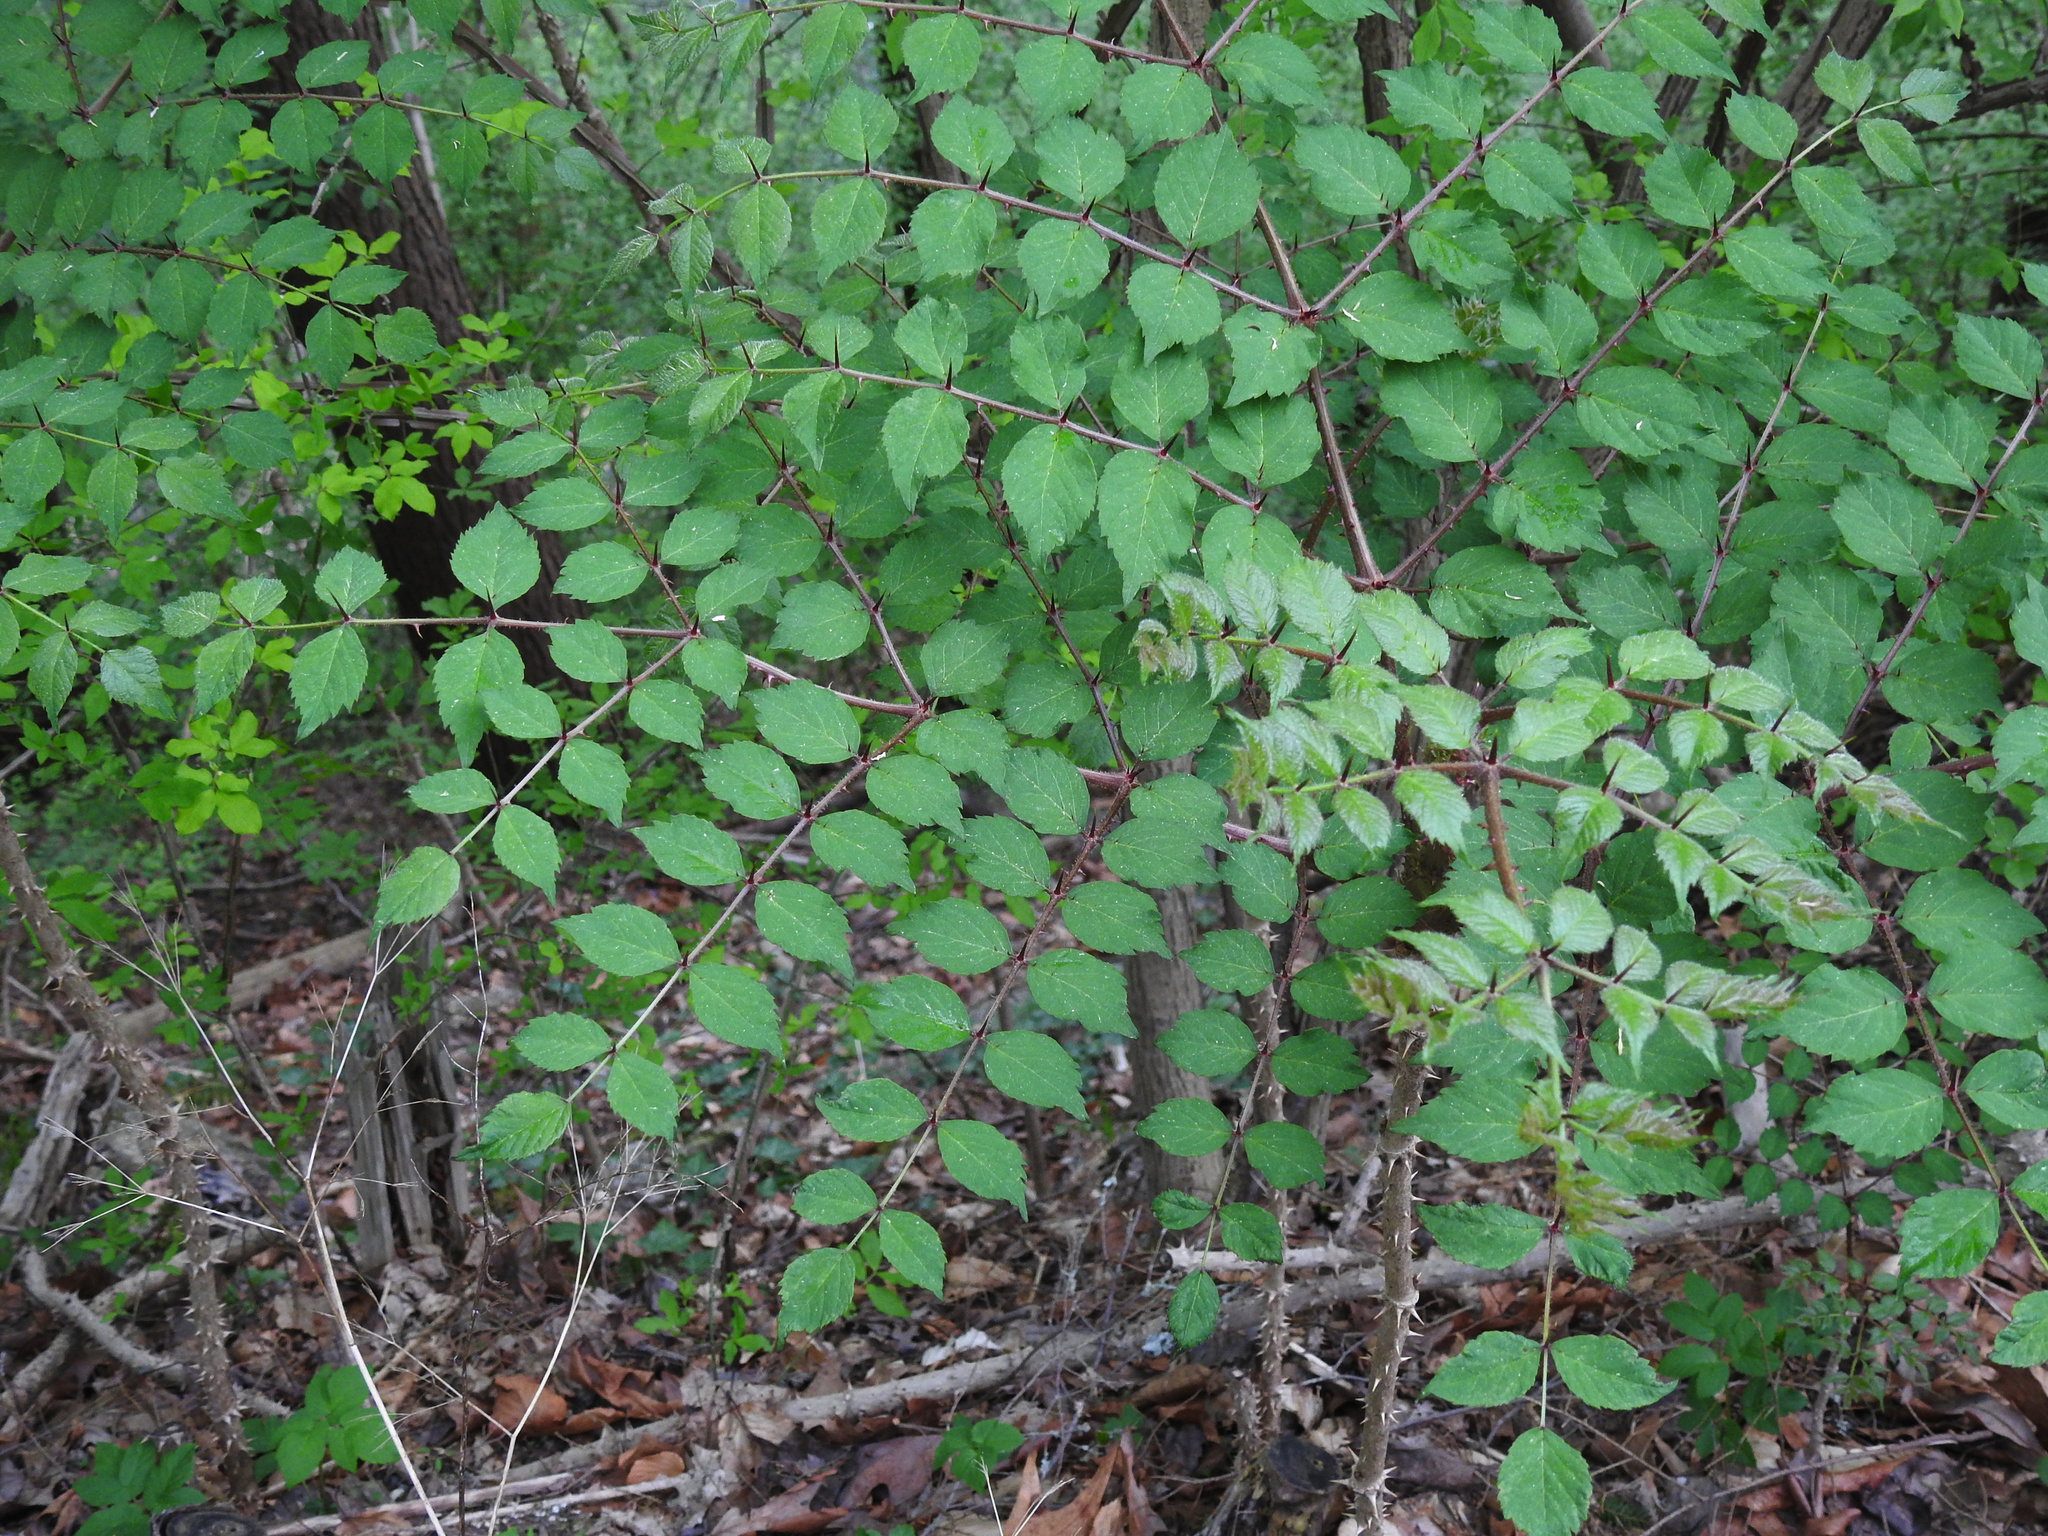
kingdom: Plantae
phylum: Tracheophyta
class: Magnoliopsida
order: Apiales
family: Araliaceae
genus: Aralia
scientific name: Aralia elata
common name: Japanese angelica-tree
